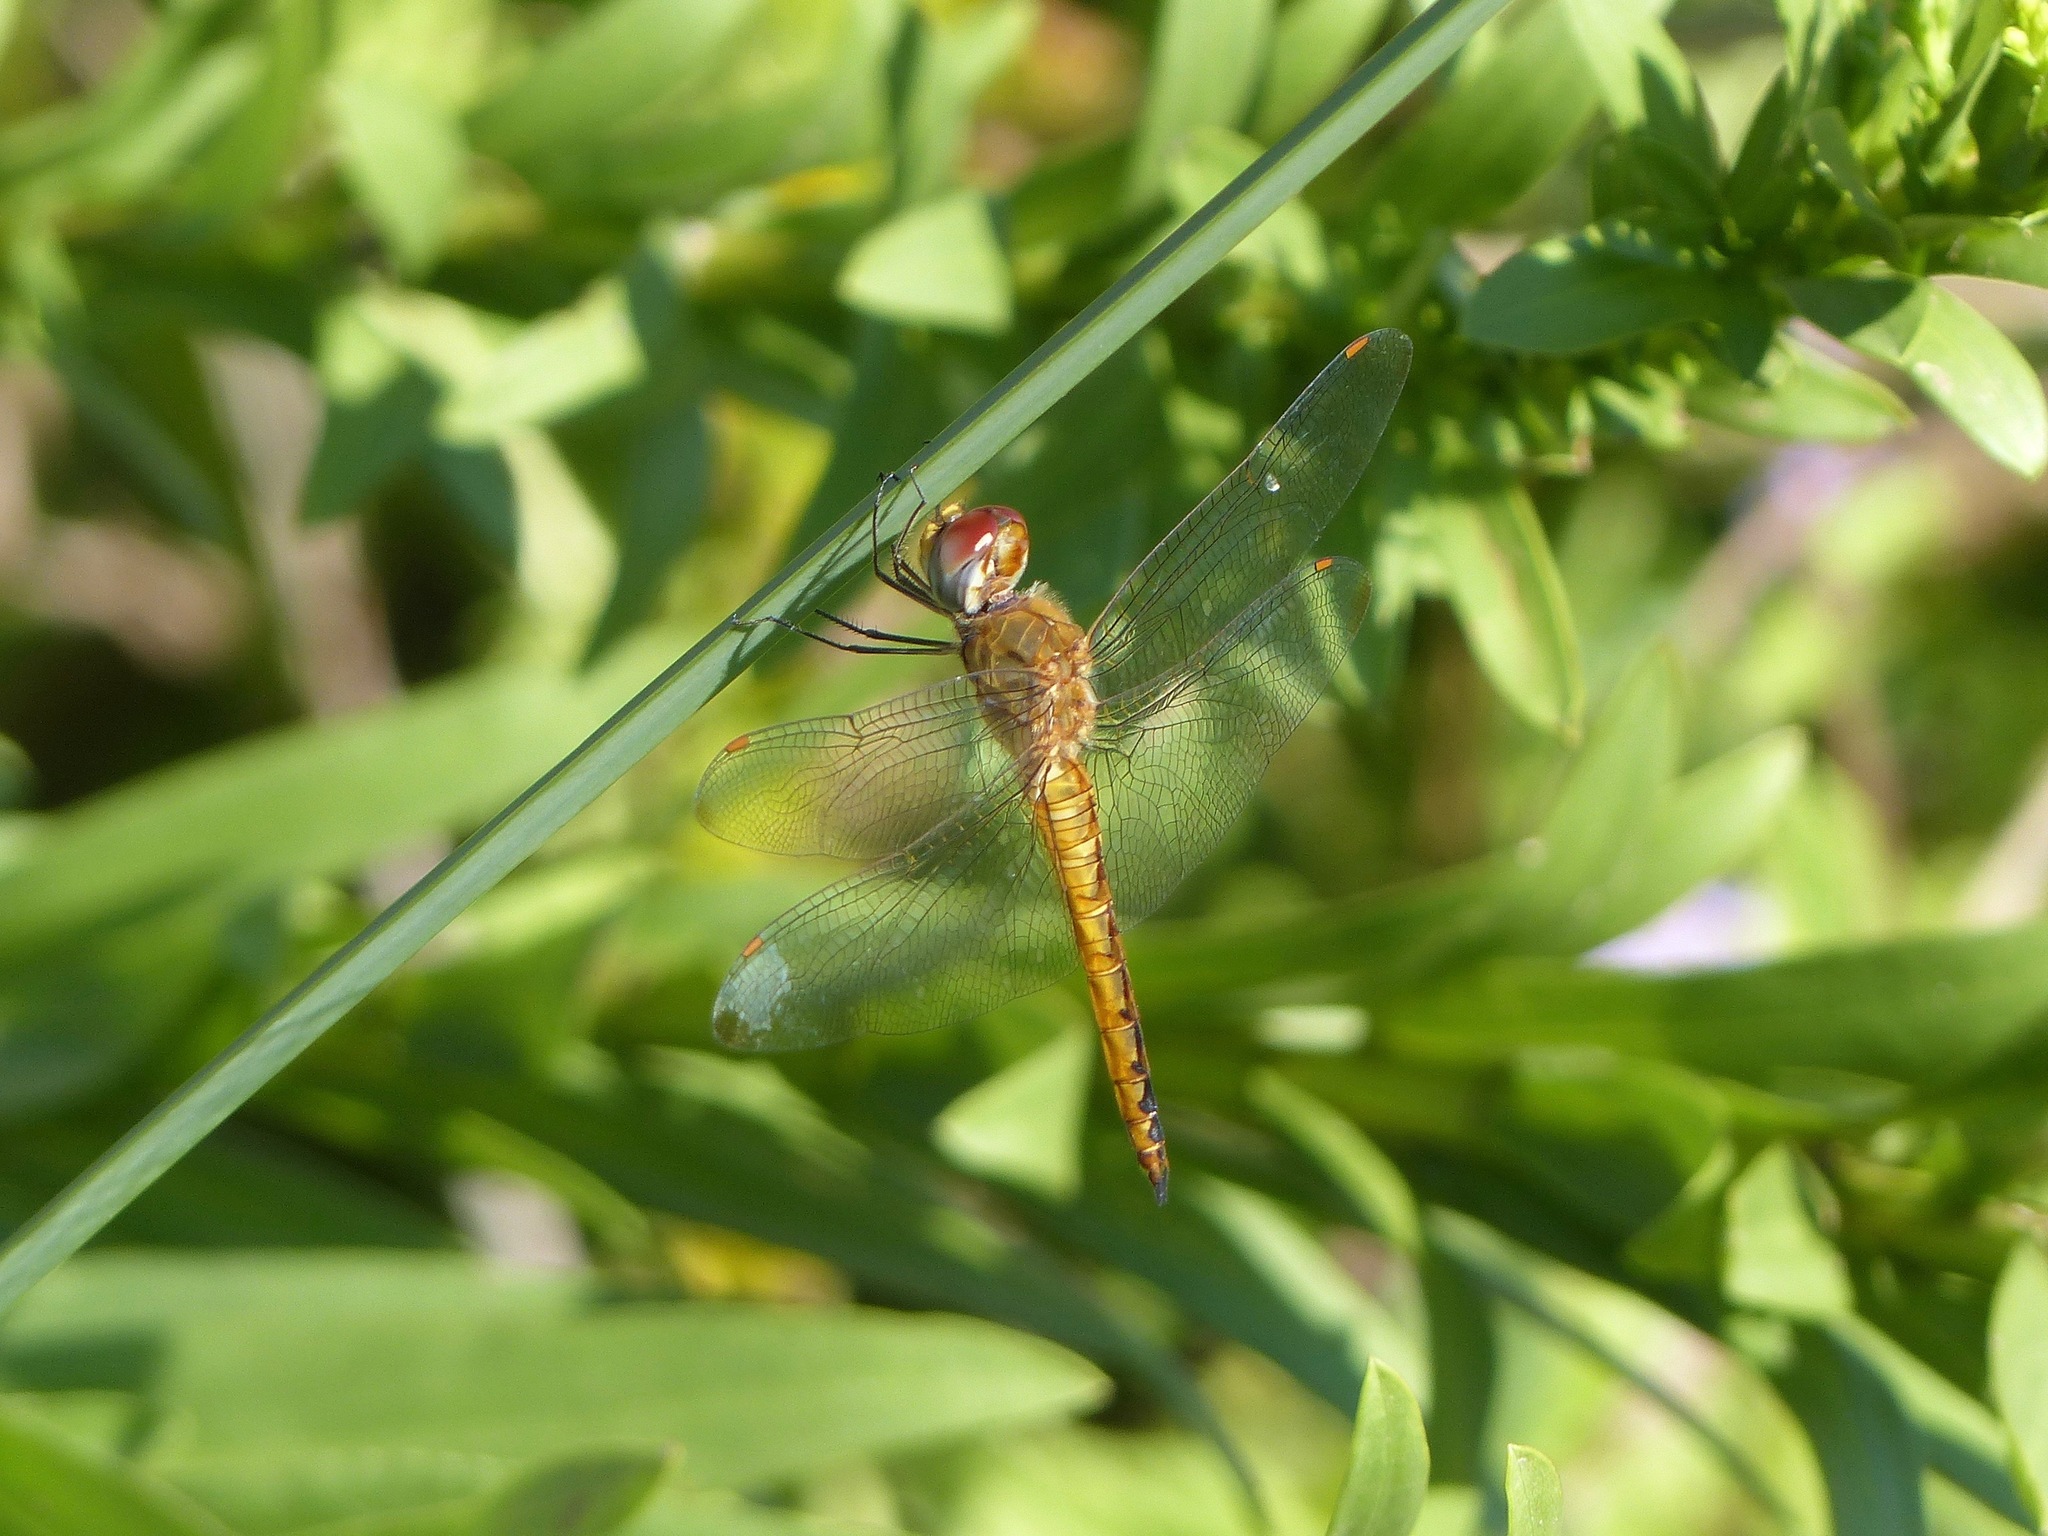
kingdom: Animalia
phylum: Arthropoda
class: Insecta
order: Odonata
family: Libellulidae
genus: Pantala
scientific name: Pantala flavescens
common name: Wandering glider
